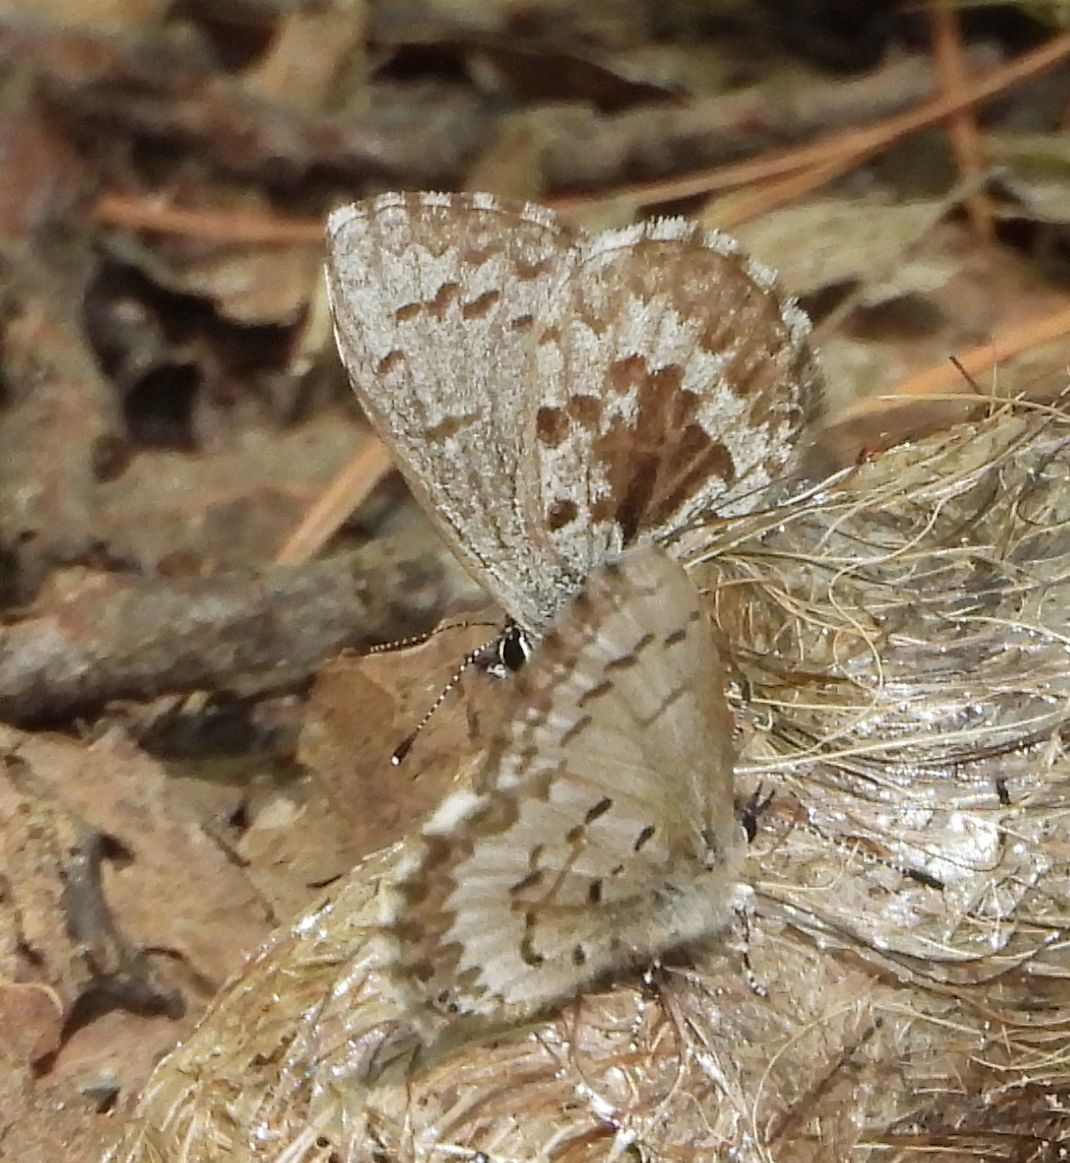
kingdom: Animalia
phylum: Arthropoda
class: Insecta
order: Lepidoptera
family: Lycaenidae
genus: Celastrina
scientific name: Celastrina lucia
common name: Lucia azure
